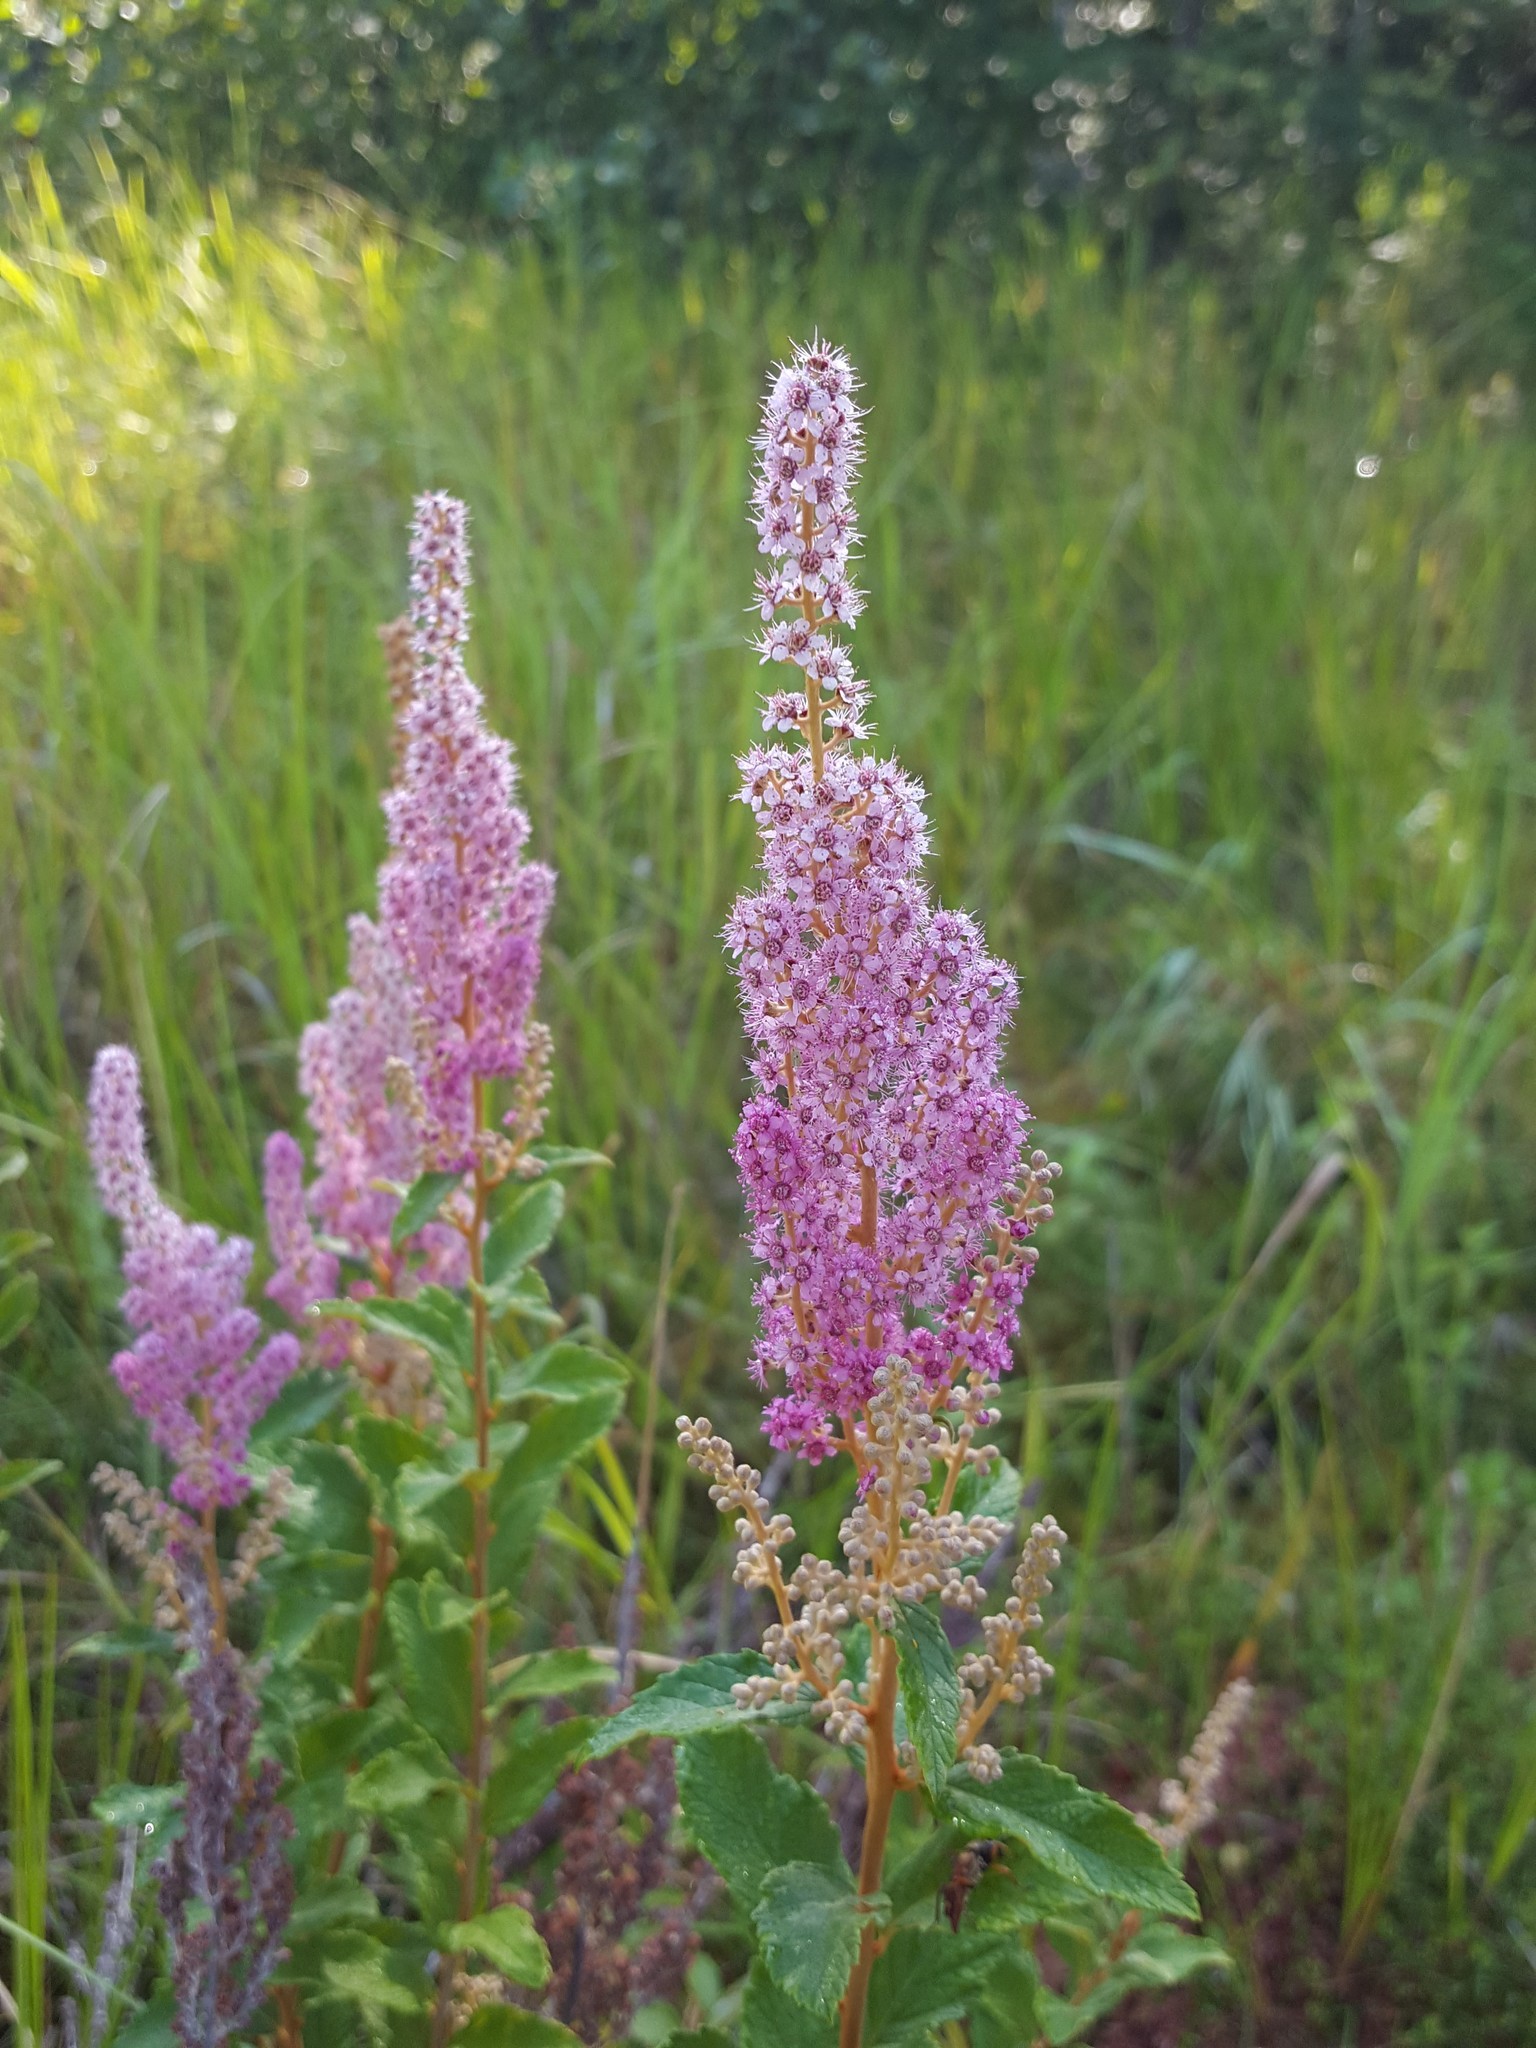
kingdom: Plantae
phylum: Tracheophyta
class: Magnoliopsida
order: Rosales
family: Rosaceae
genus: Spiraea
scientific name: Spiraea tomentosa
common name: Hardhack
